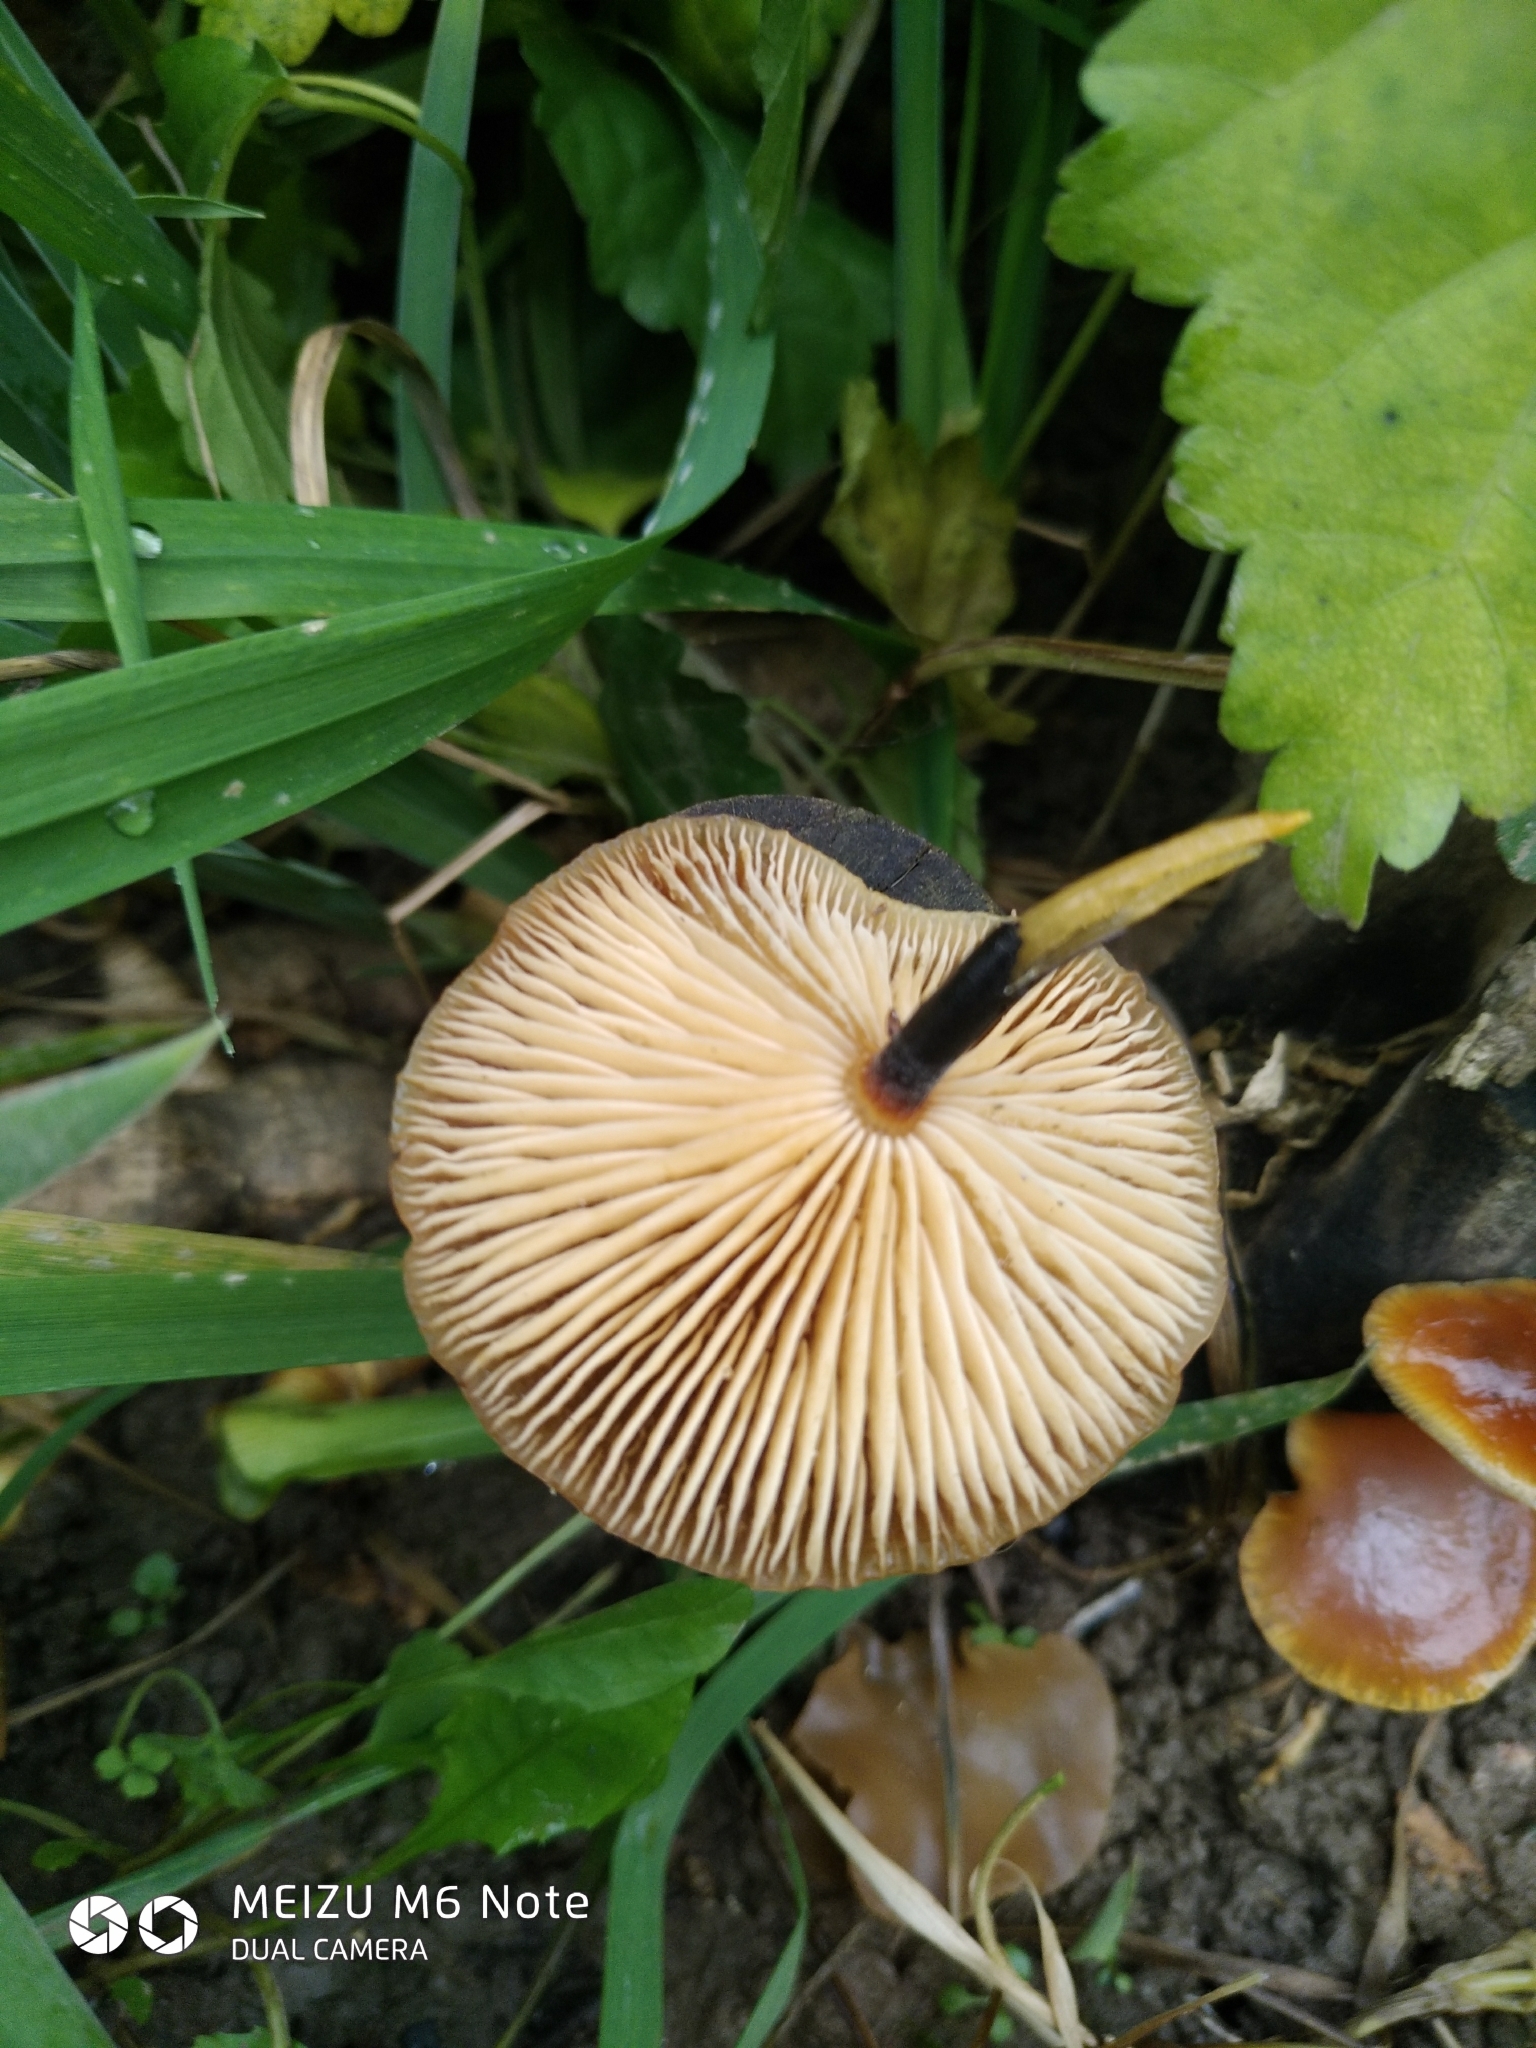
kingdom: Fungi
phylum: Basidiomycota
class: Agaricomycetes
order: Agaricales
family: Physalacriaceae
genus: Flammulina
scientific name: Flammulina
